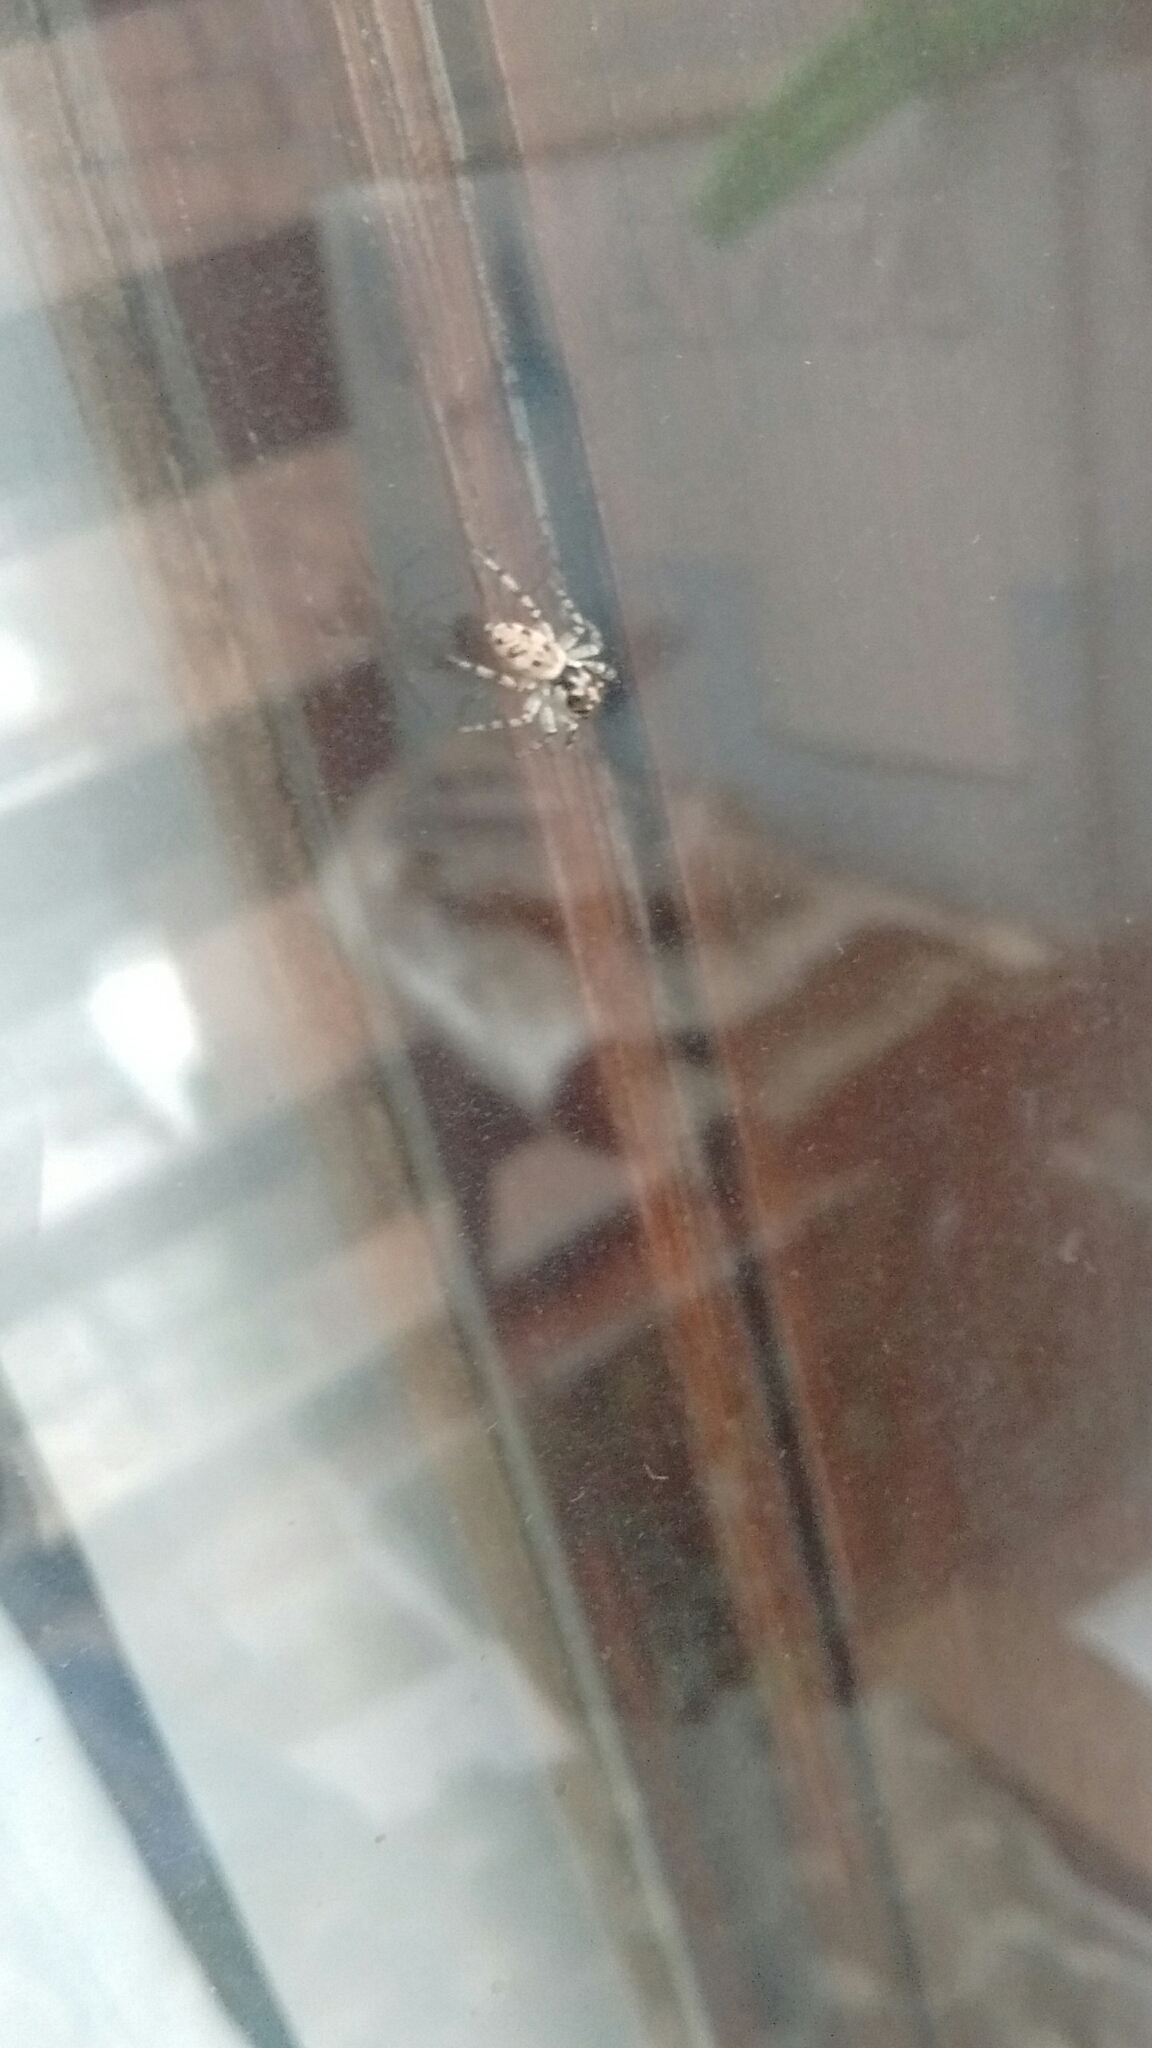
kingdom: Animalia
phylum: Arthropoda
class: Arachnida
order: Araneae
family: Salticidae
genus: Salticus
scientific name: Salticus mutabilis
